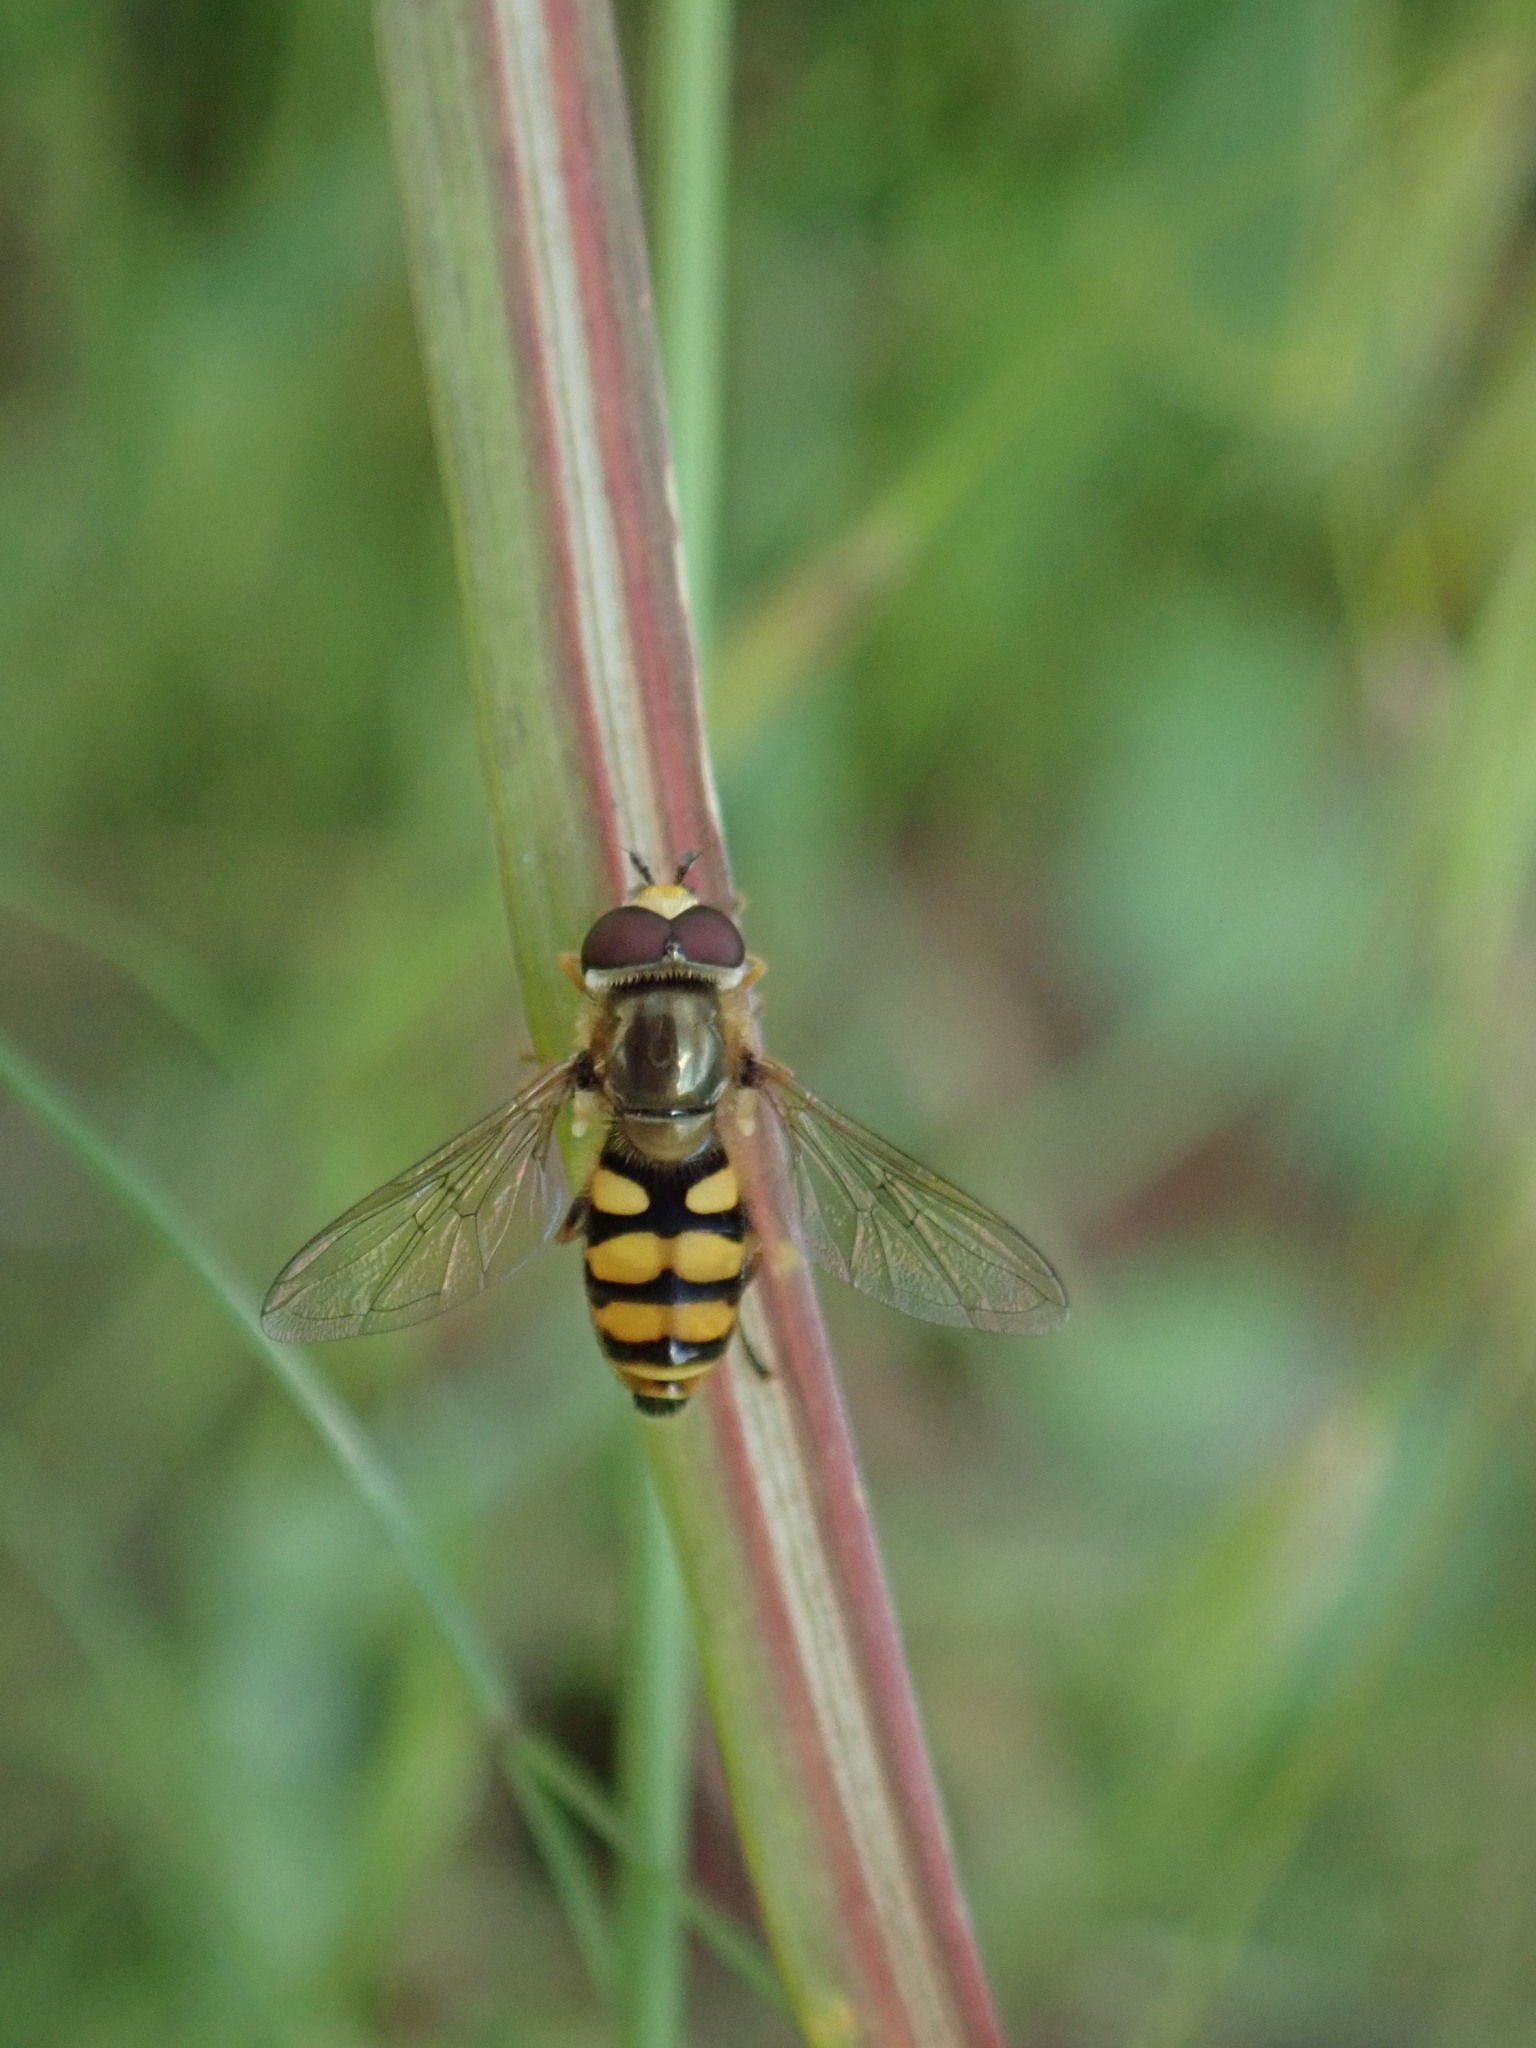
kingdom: Animalia
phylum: Arthropoda
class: Insecta
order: Diptera
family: Syrphidae
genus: Eupeodes
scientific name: Eupeodes corollae
